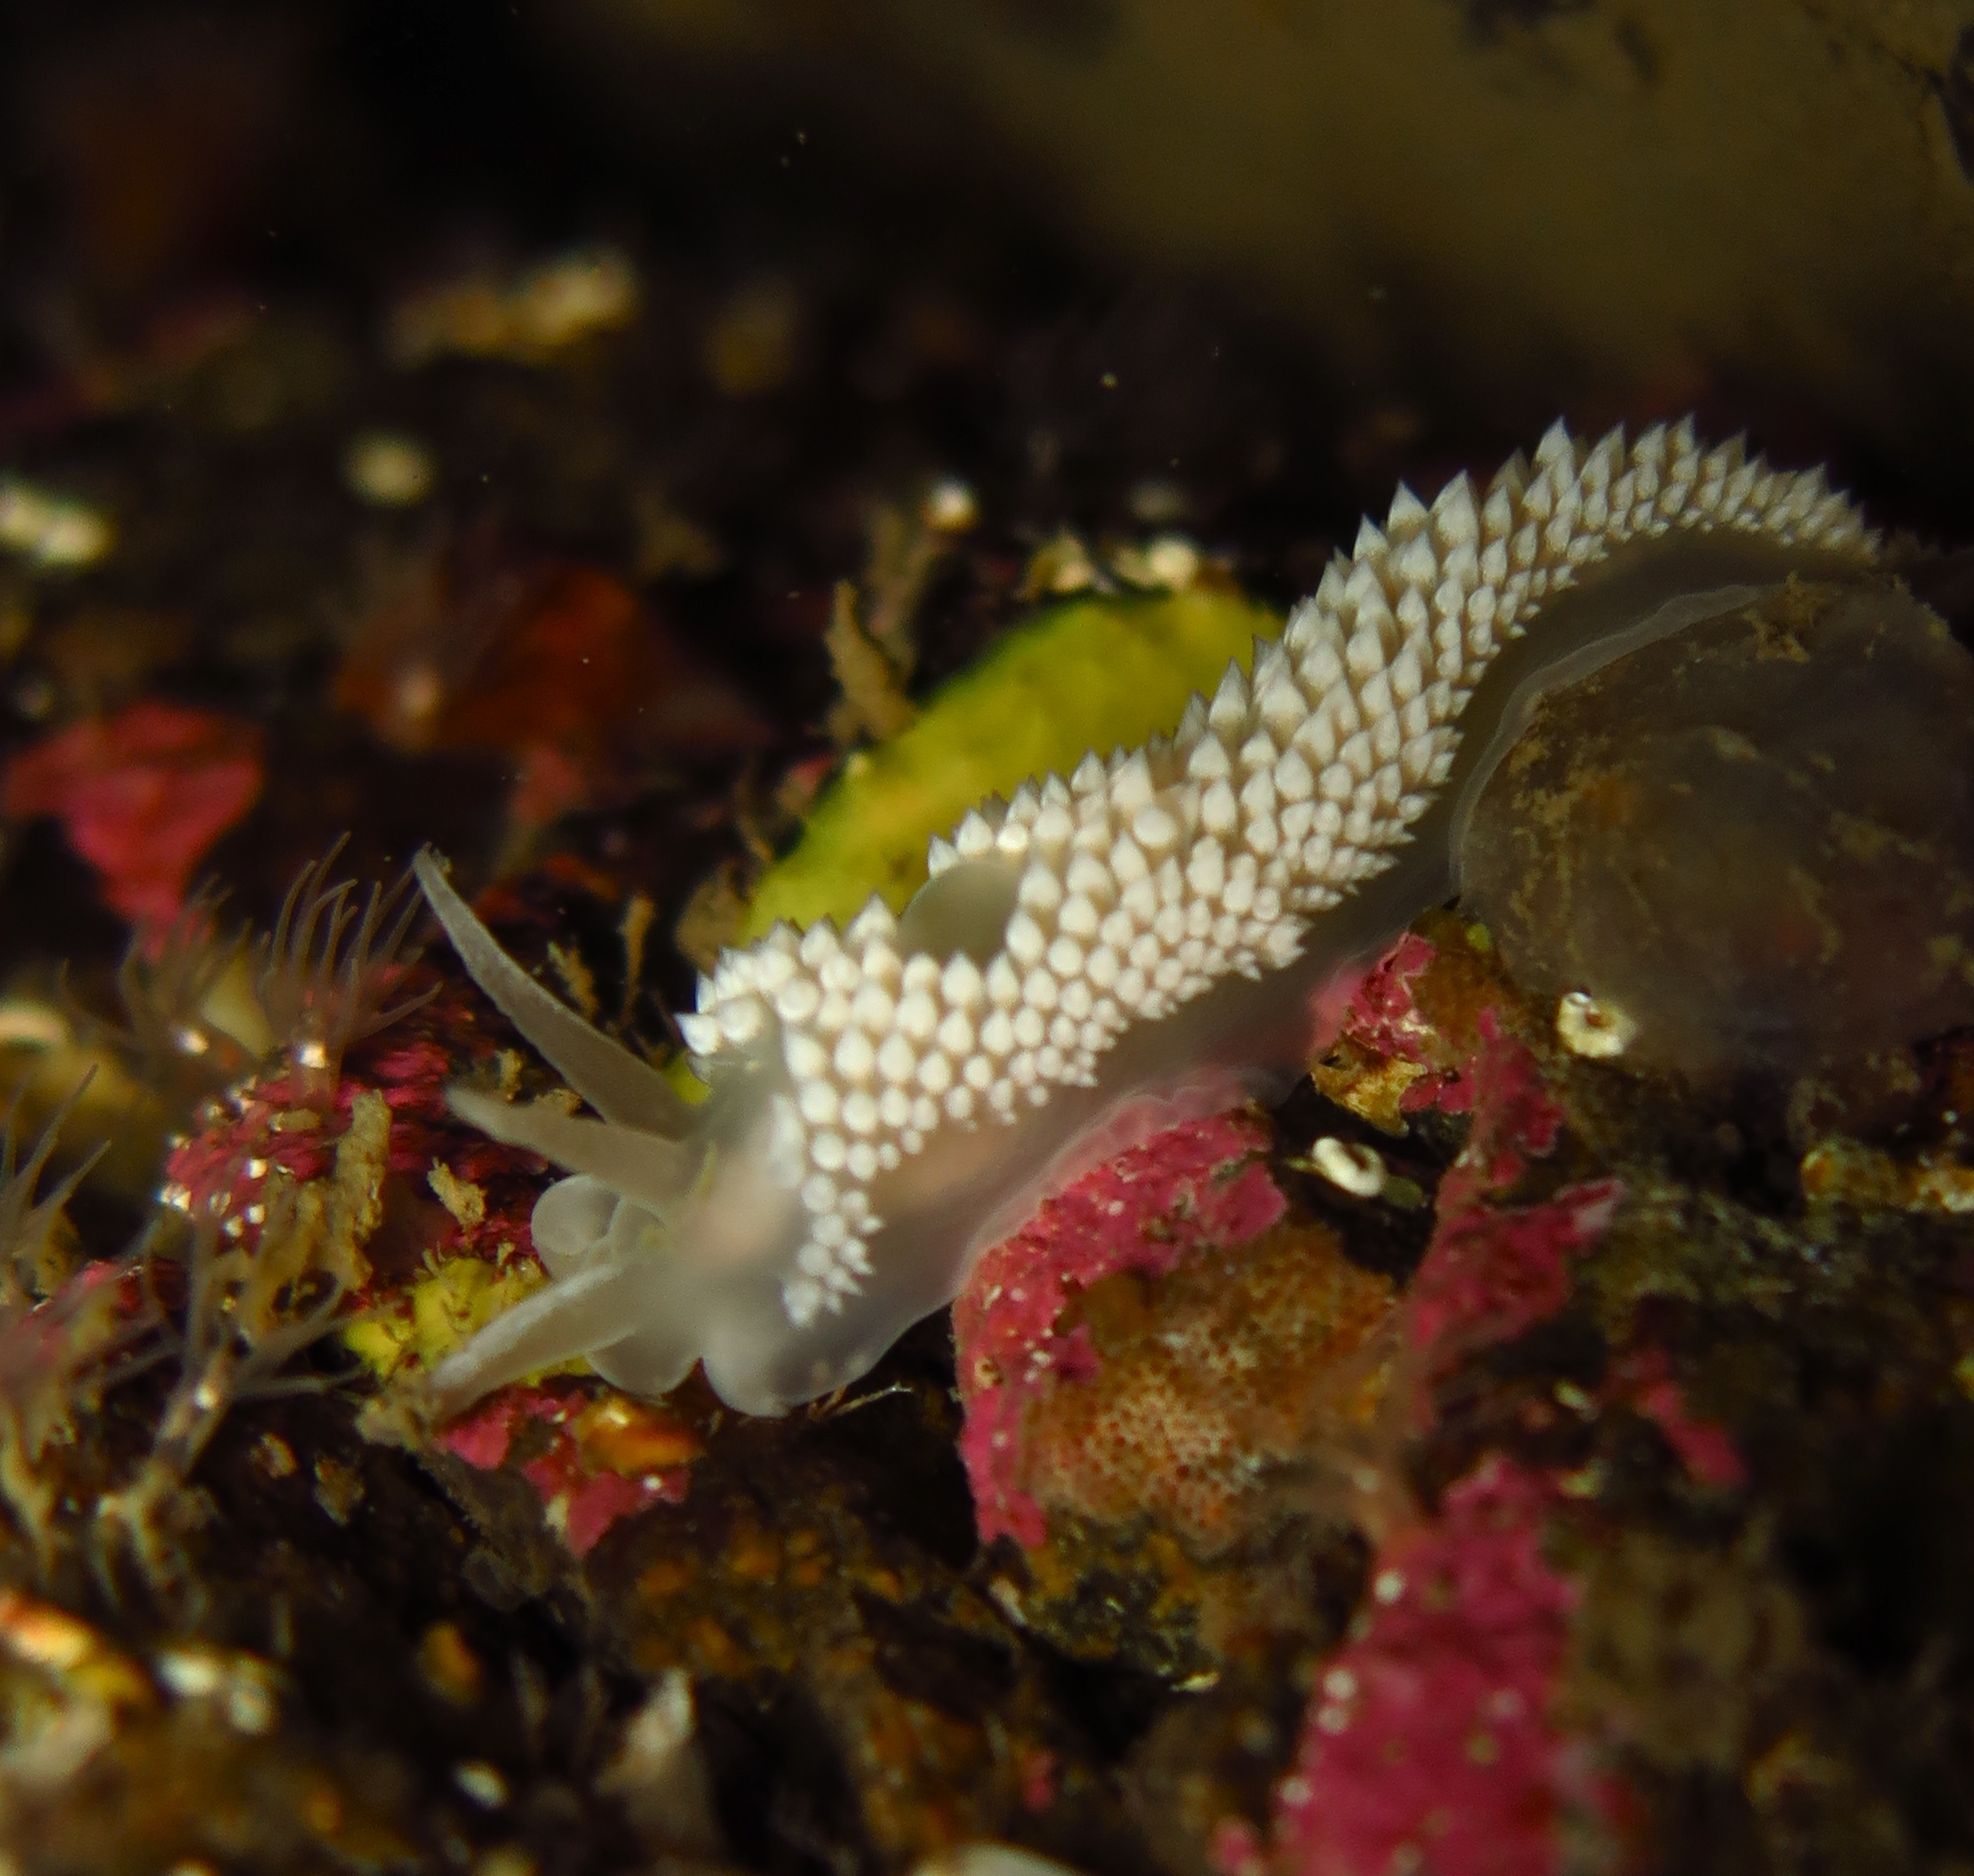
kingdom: Animalia
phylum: Mollusca
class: Gastropoda
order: Nudibranchia
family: Coryphellidae
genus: Coryphella
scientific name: Coryphella verrucosa
